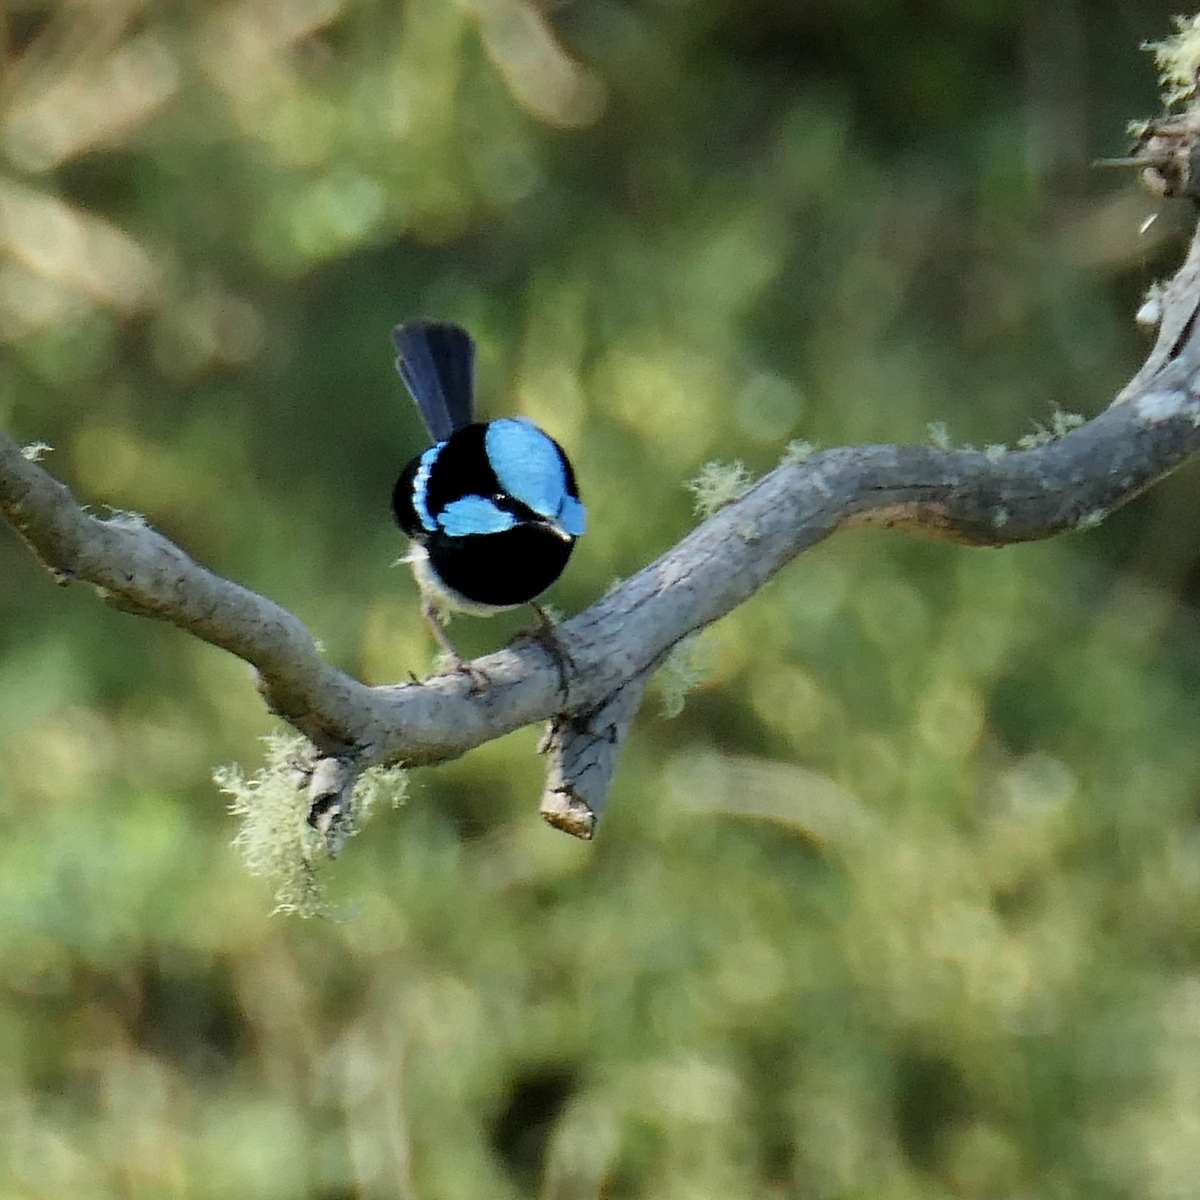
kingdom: Animalia
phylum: Chordata
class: Aves
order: Passeriformes
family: Maluridae
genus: Malurus
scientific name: Malurus cyaneus
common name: Superb fairywren
